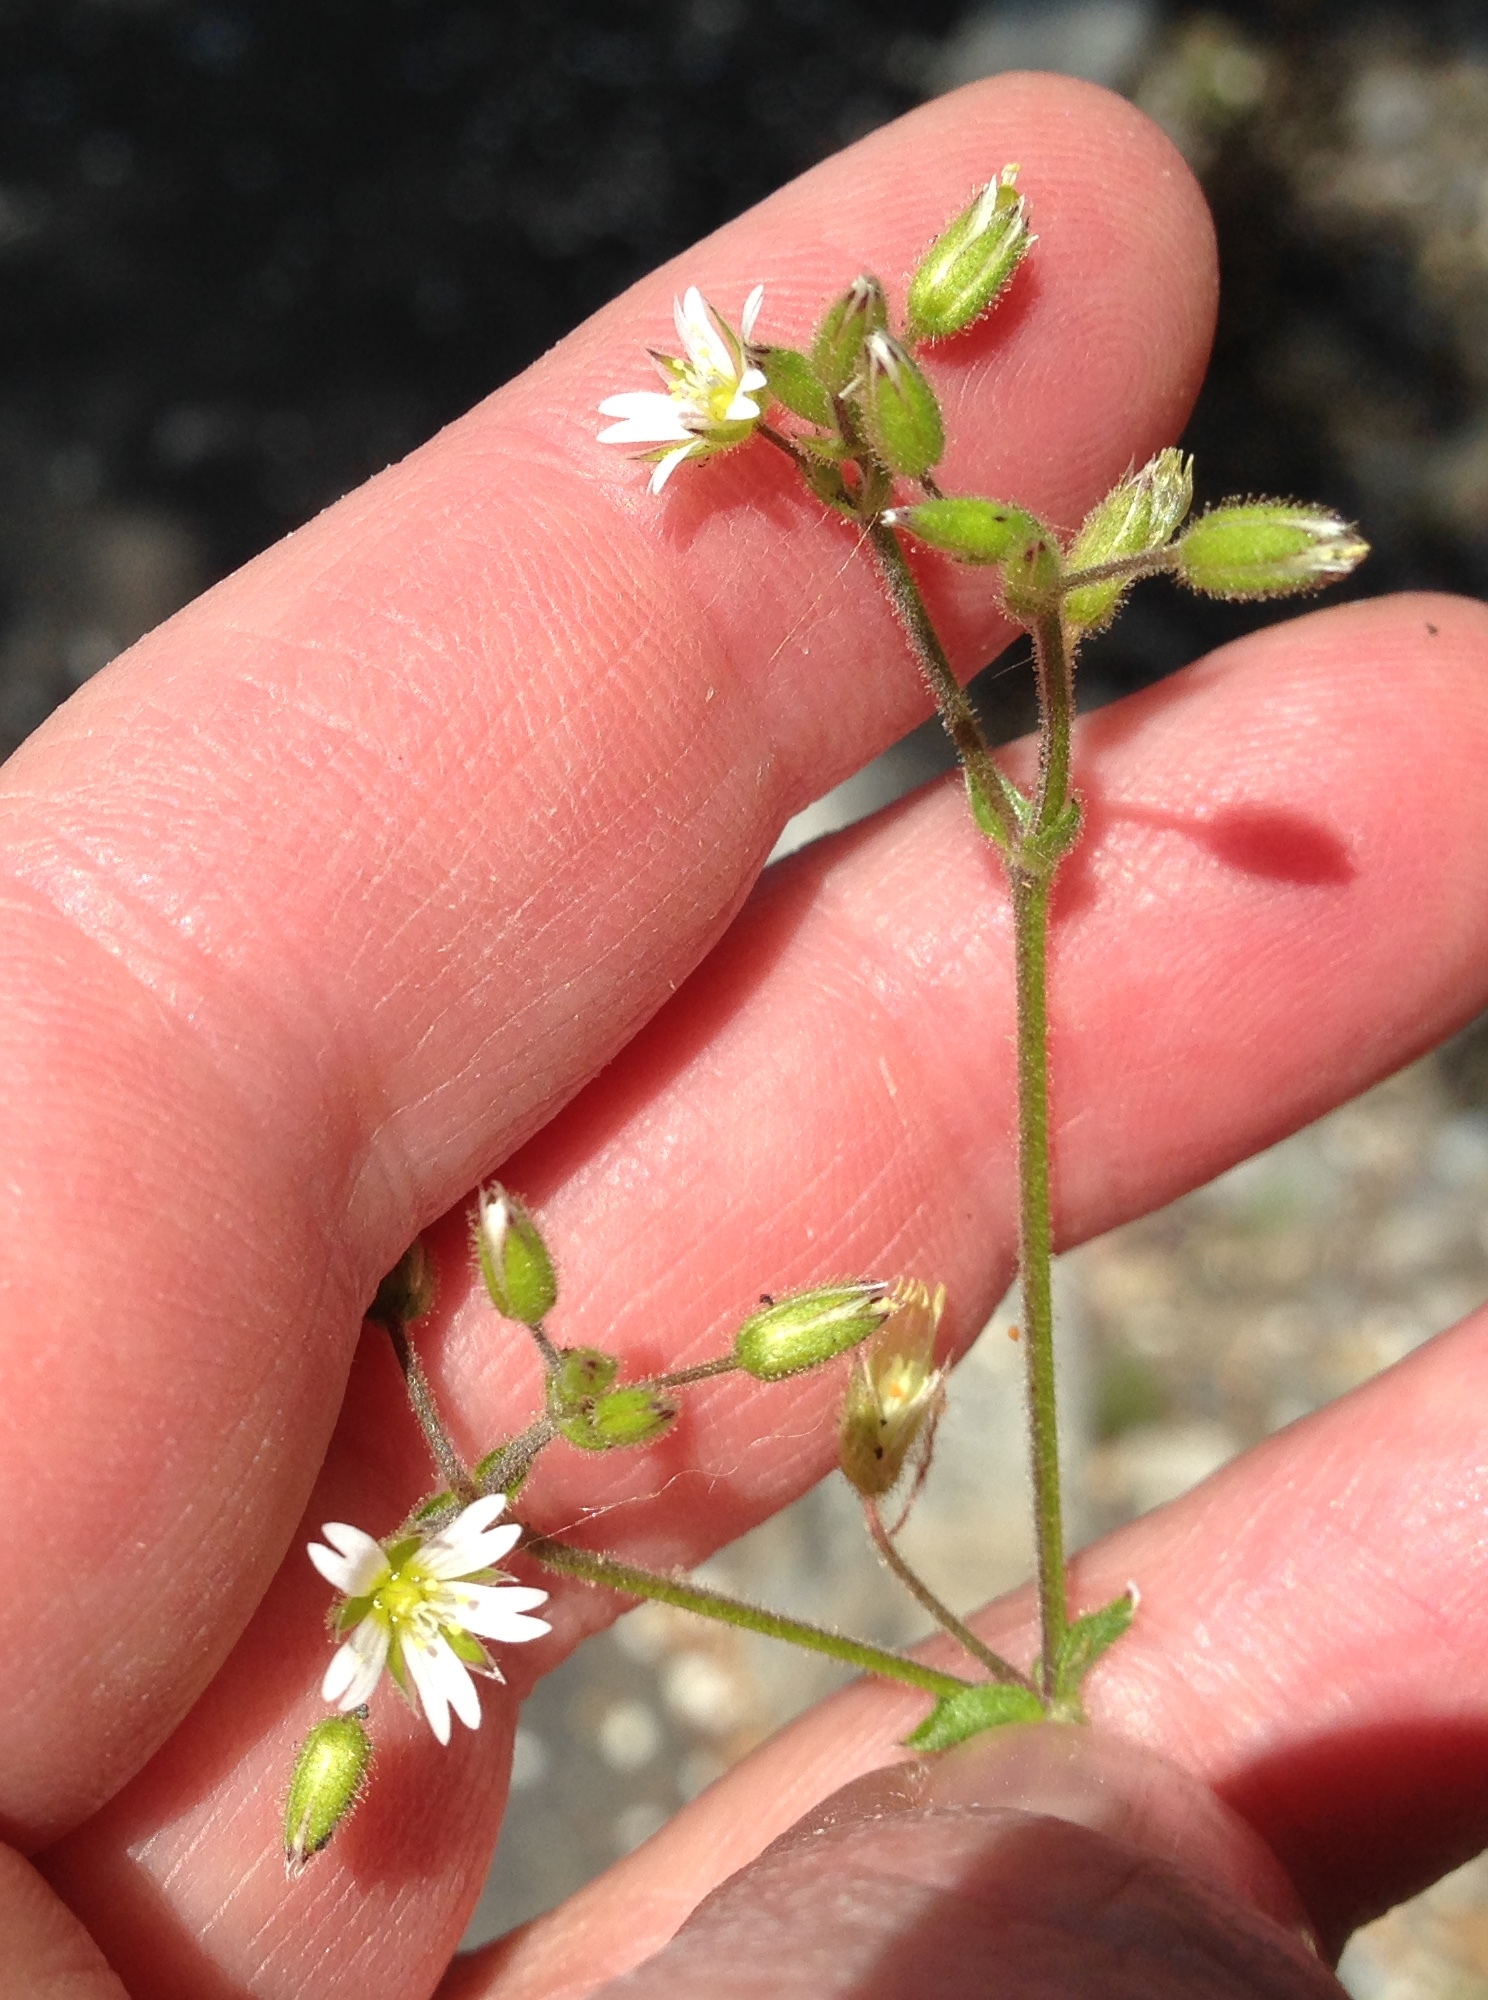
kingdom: Plantae
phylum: Tracheophyta
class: Magnoliopsida
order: Caryophyllales
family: Caryophyllaceae
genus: Cerastium
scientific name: Cerastium glomeratum
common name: Sticky chickweed
